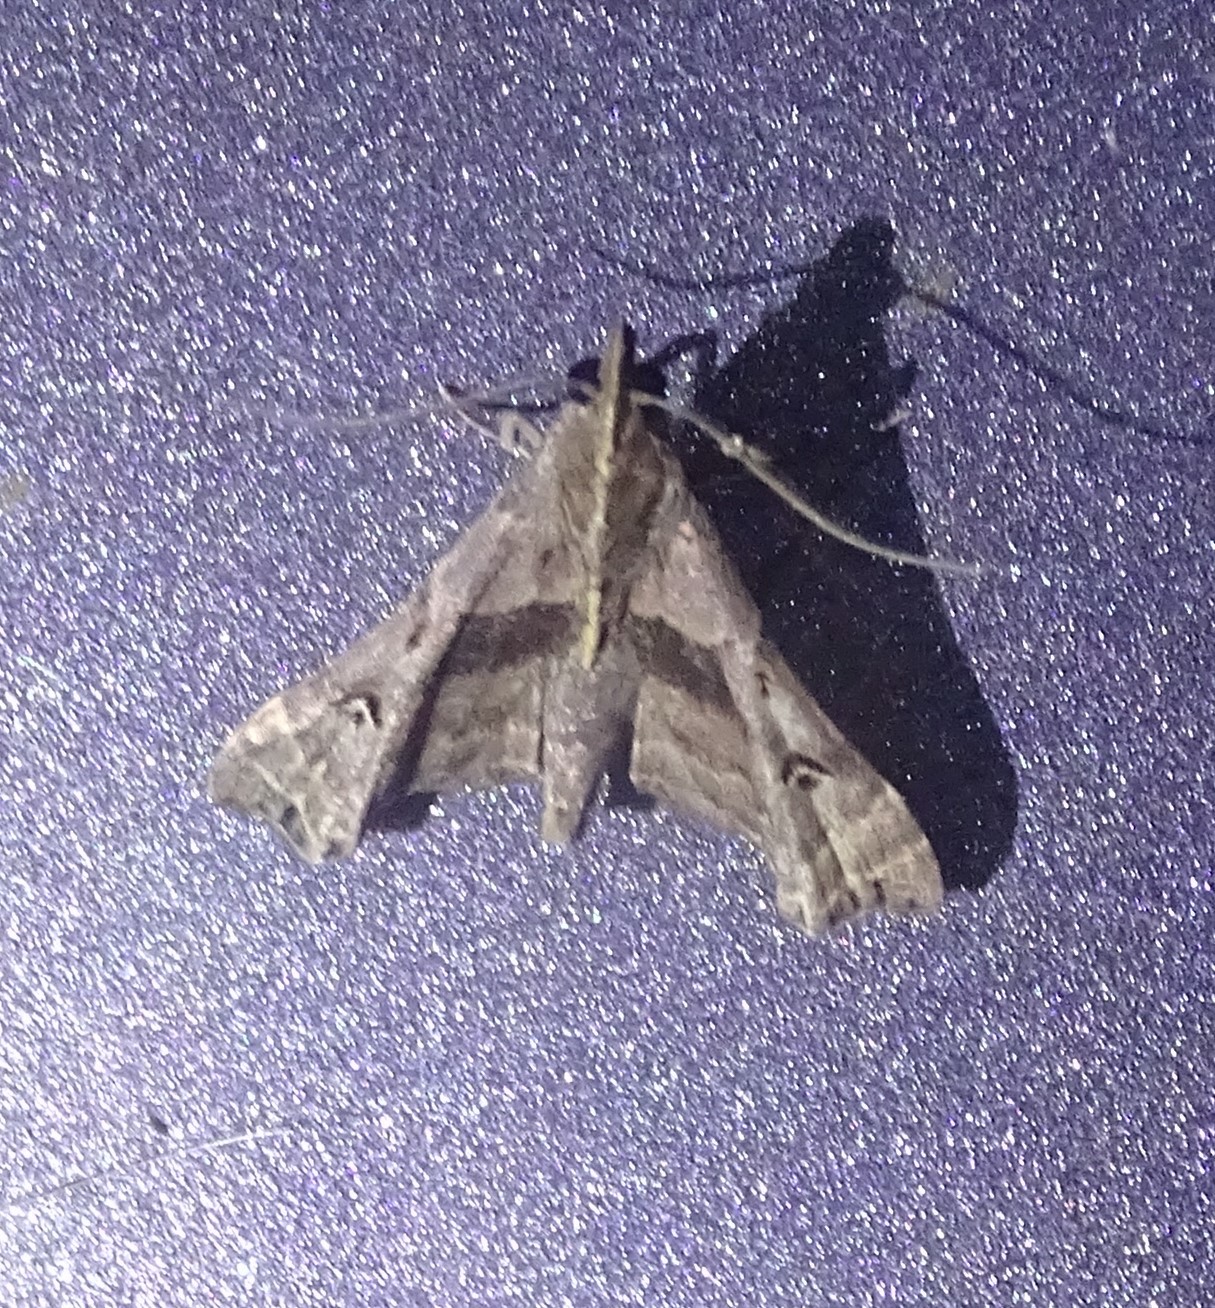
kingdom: Animalia
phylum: Arthropoda
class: Insecta
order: Lepidoptera
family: Erebidae
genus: Palthis
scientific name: Palthis asopialis
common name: Faint-spotted palthis moth
